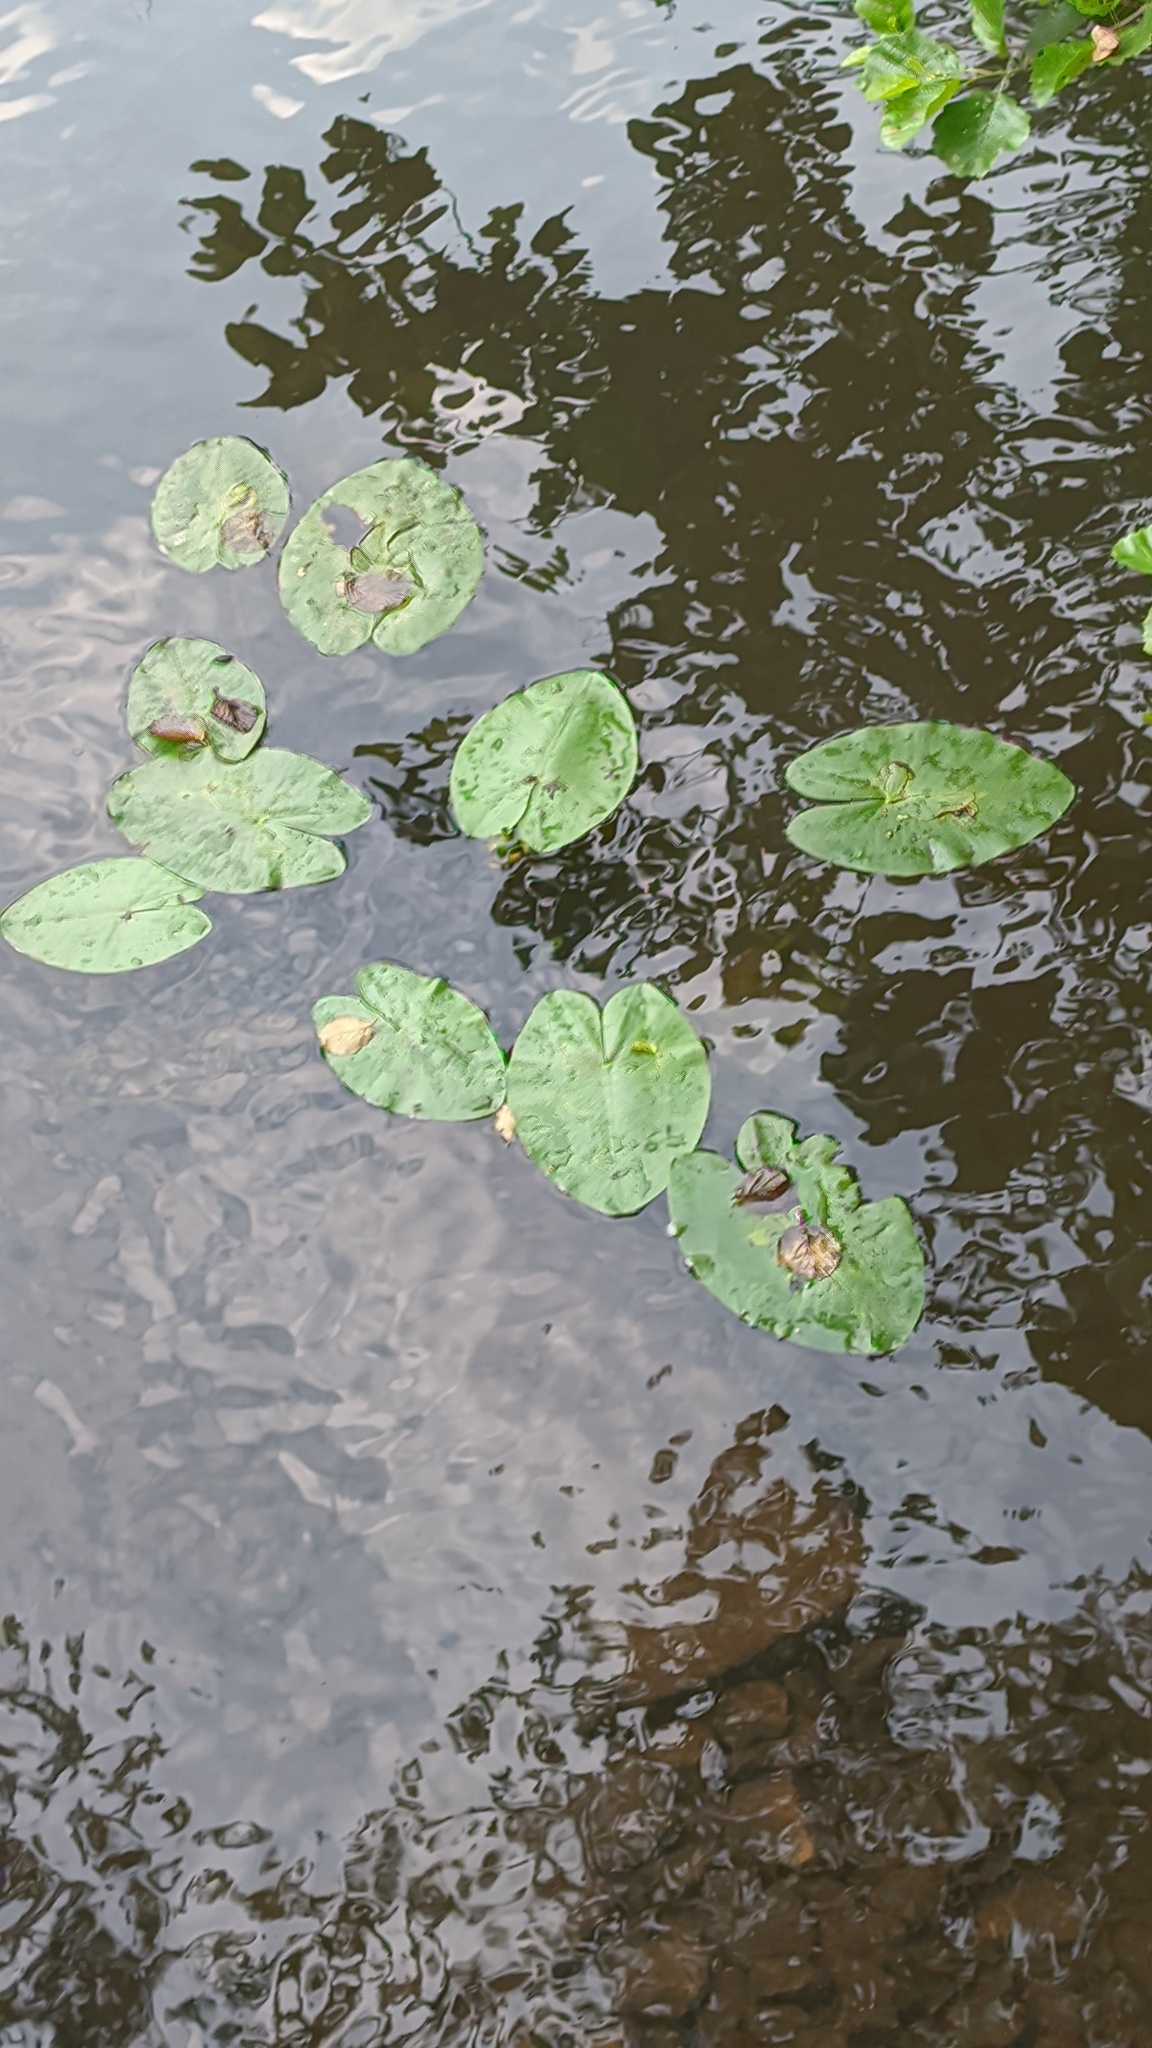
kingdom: Plantae
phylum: Tracheophyta
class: Magnoliopsida
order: Nymphaeales
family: Nymphaeaceae
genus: Nuphar
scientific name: Nuphar lutea
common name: Yellow water-lily
